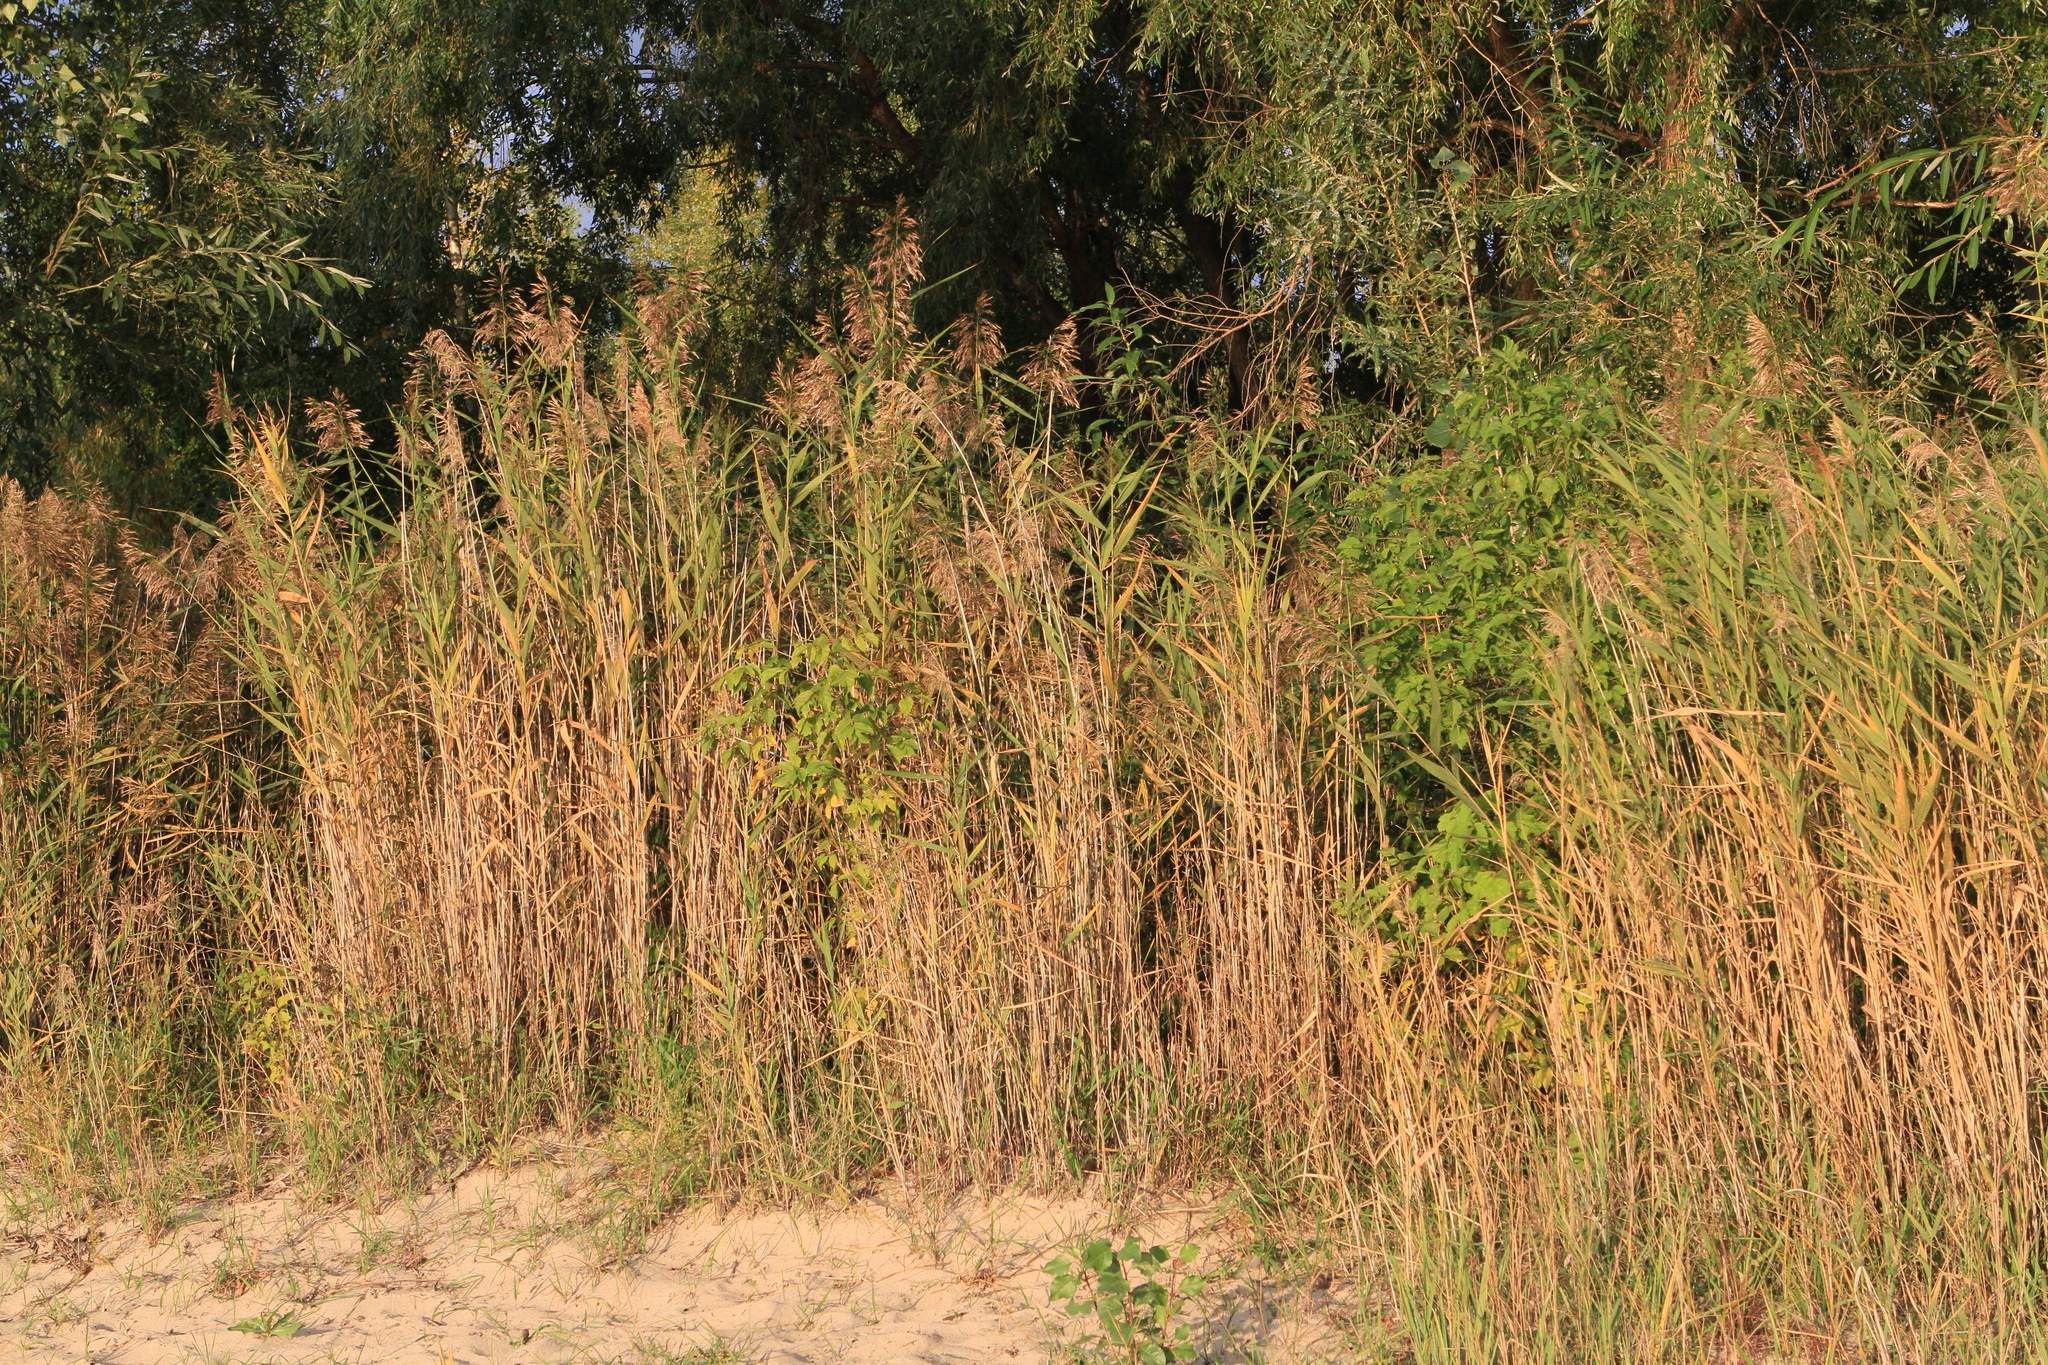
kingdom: Plantae
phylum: Tracheophyta
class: Liliopsida
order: Poales
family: Poaceae
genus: Phragmites
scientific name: Phragmites australis
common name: Common reed
